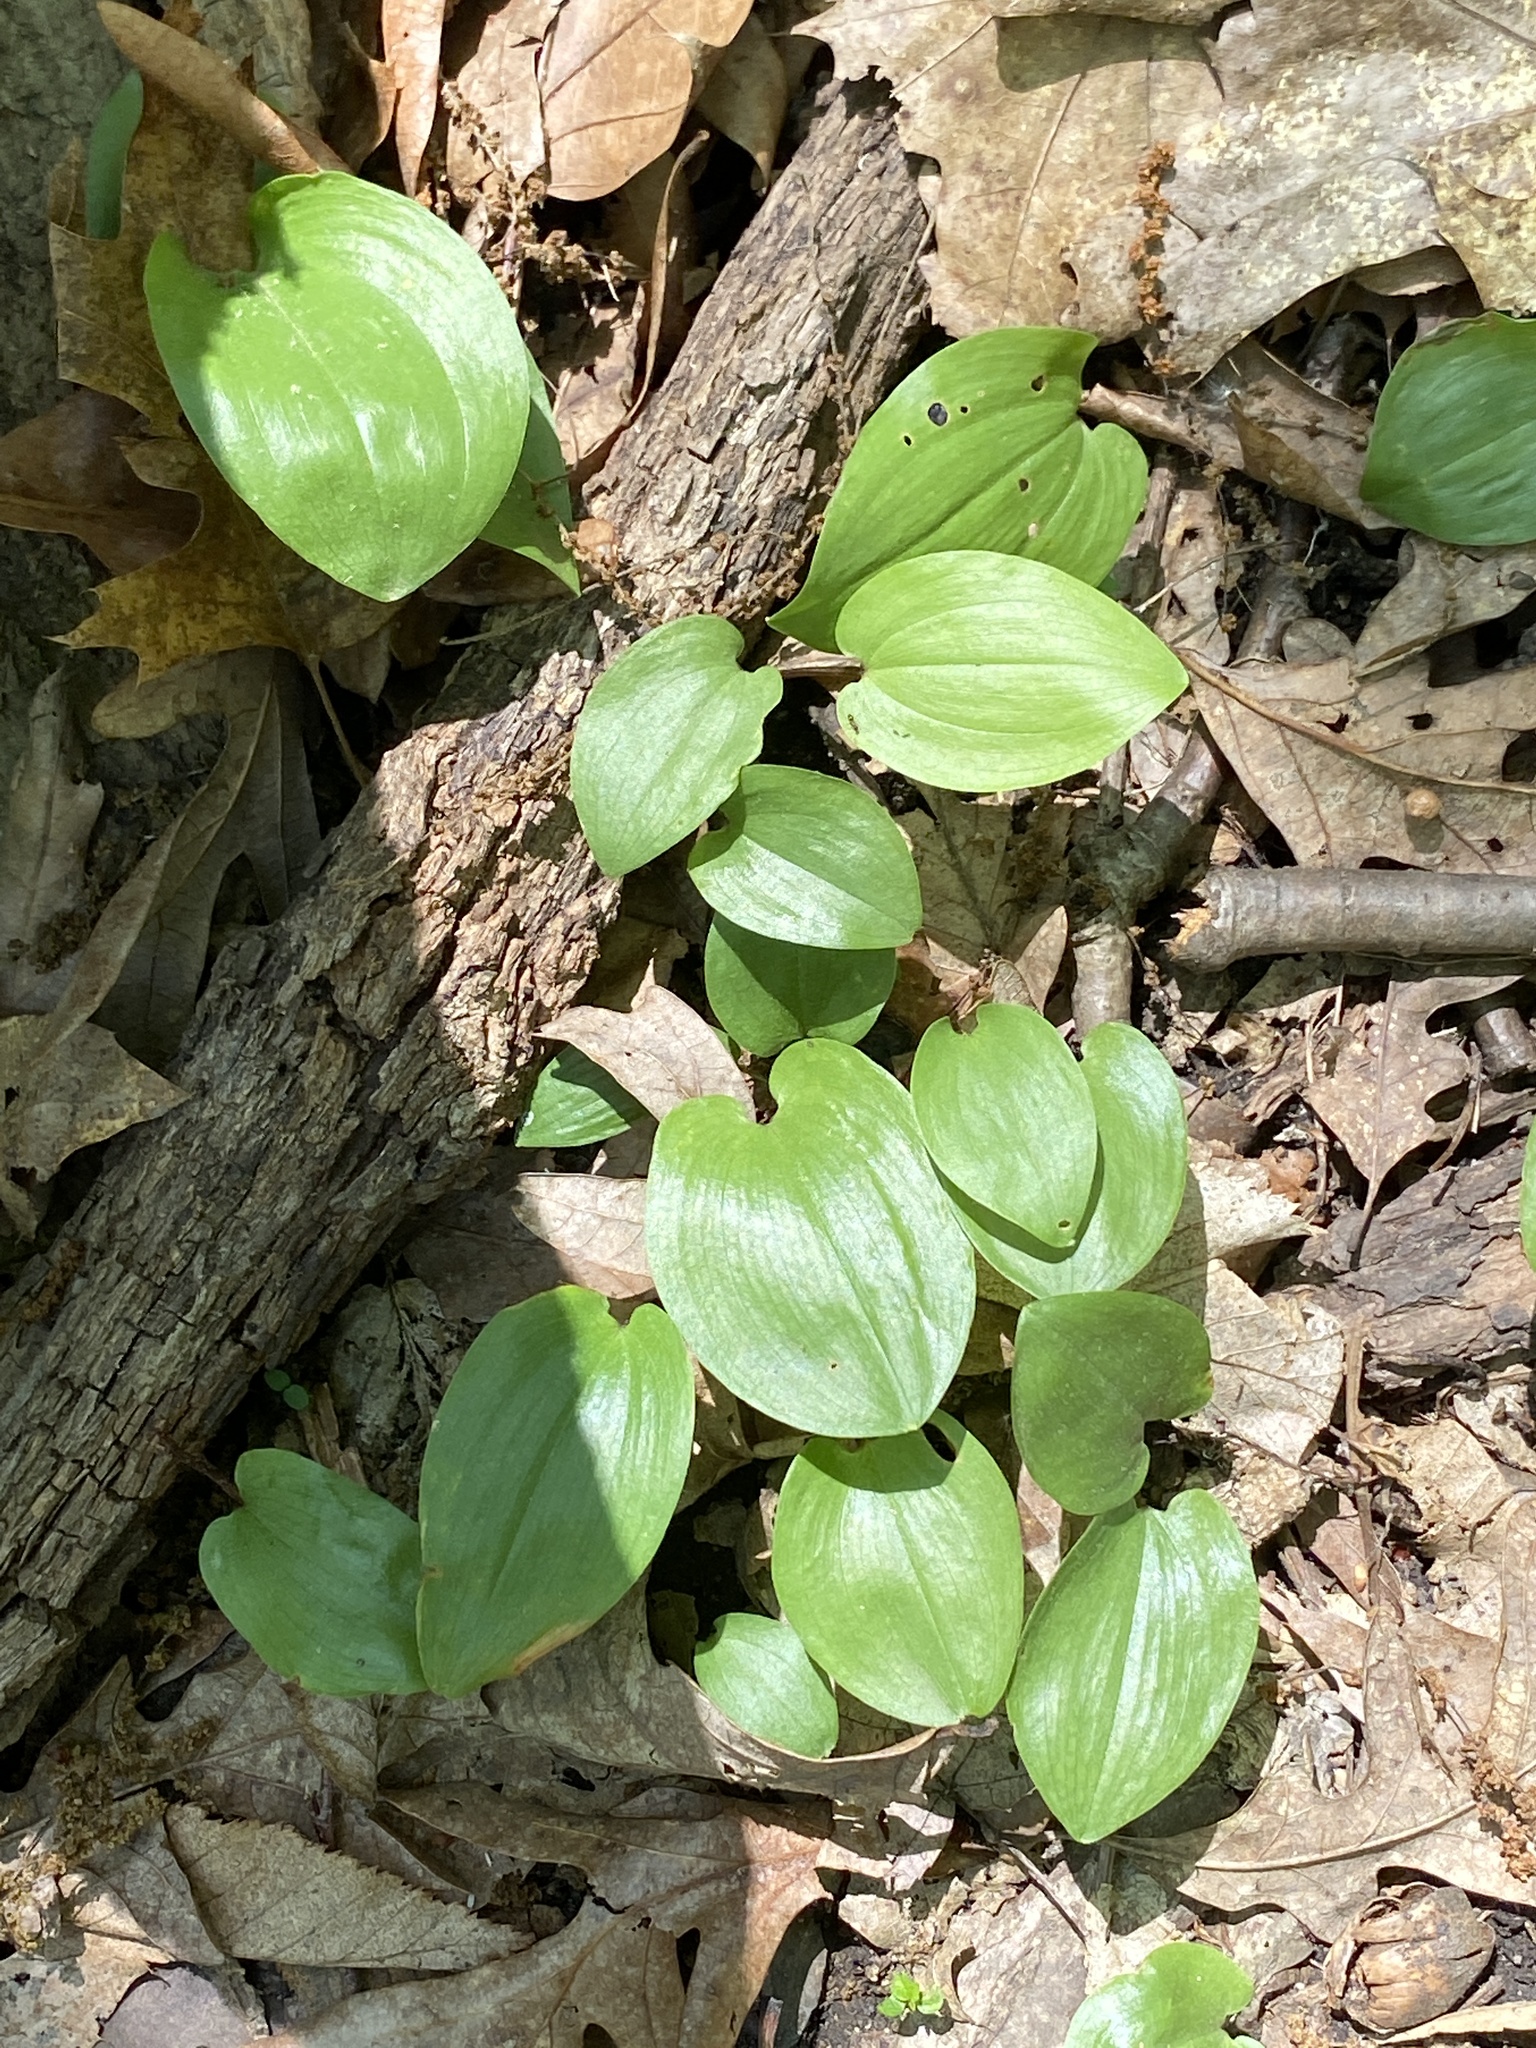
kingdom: Plantae
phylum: Tracheophyta
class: Liliopsida
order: Asparagales
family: Asparagaceae
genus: Maianthemum
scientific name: Maianthemum canadense
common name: False lily-of-the-valley
